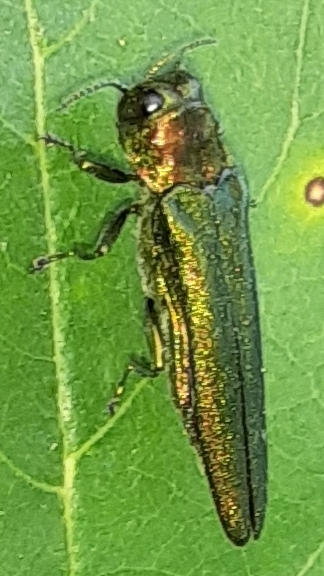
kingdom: Animalia
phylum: Arthropoda
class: Insecta
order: Coleoptera
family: Buprestidae
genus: Agrilus
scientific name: Agrilus planipennis
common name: Emerald ash borer
